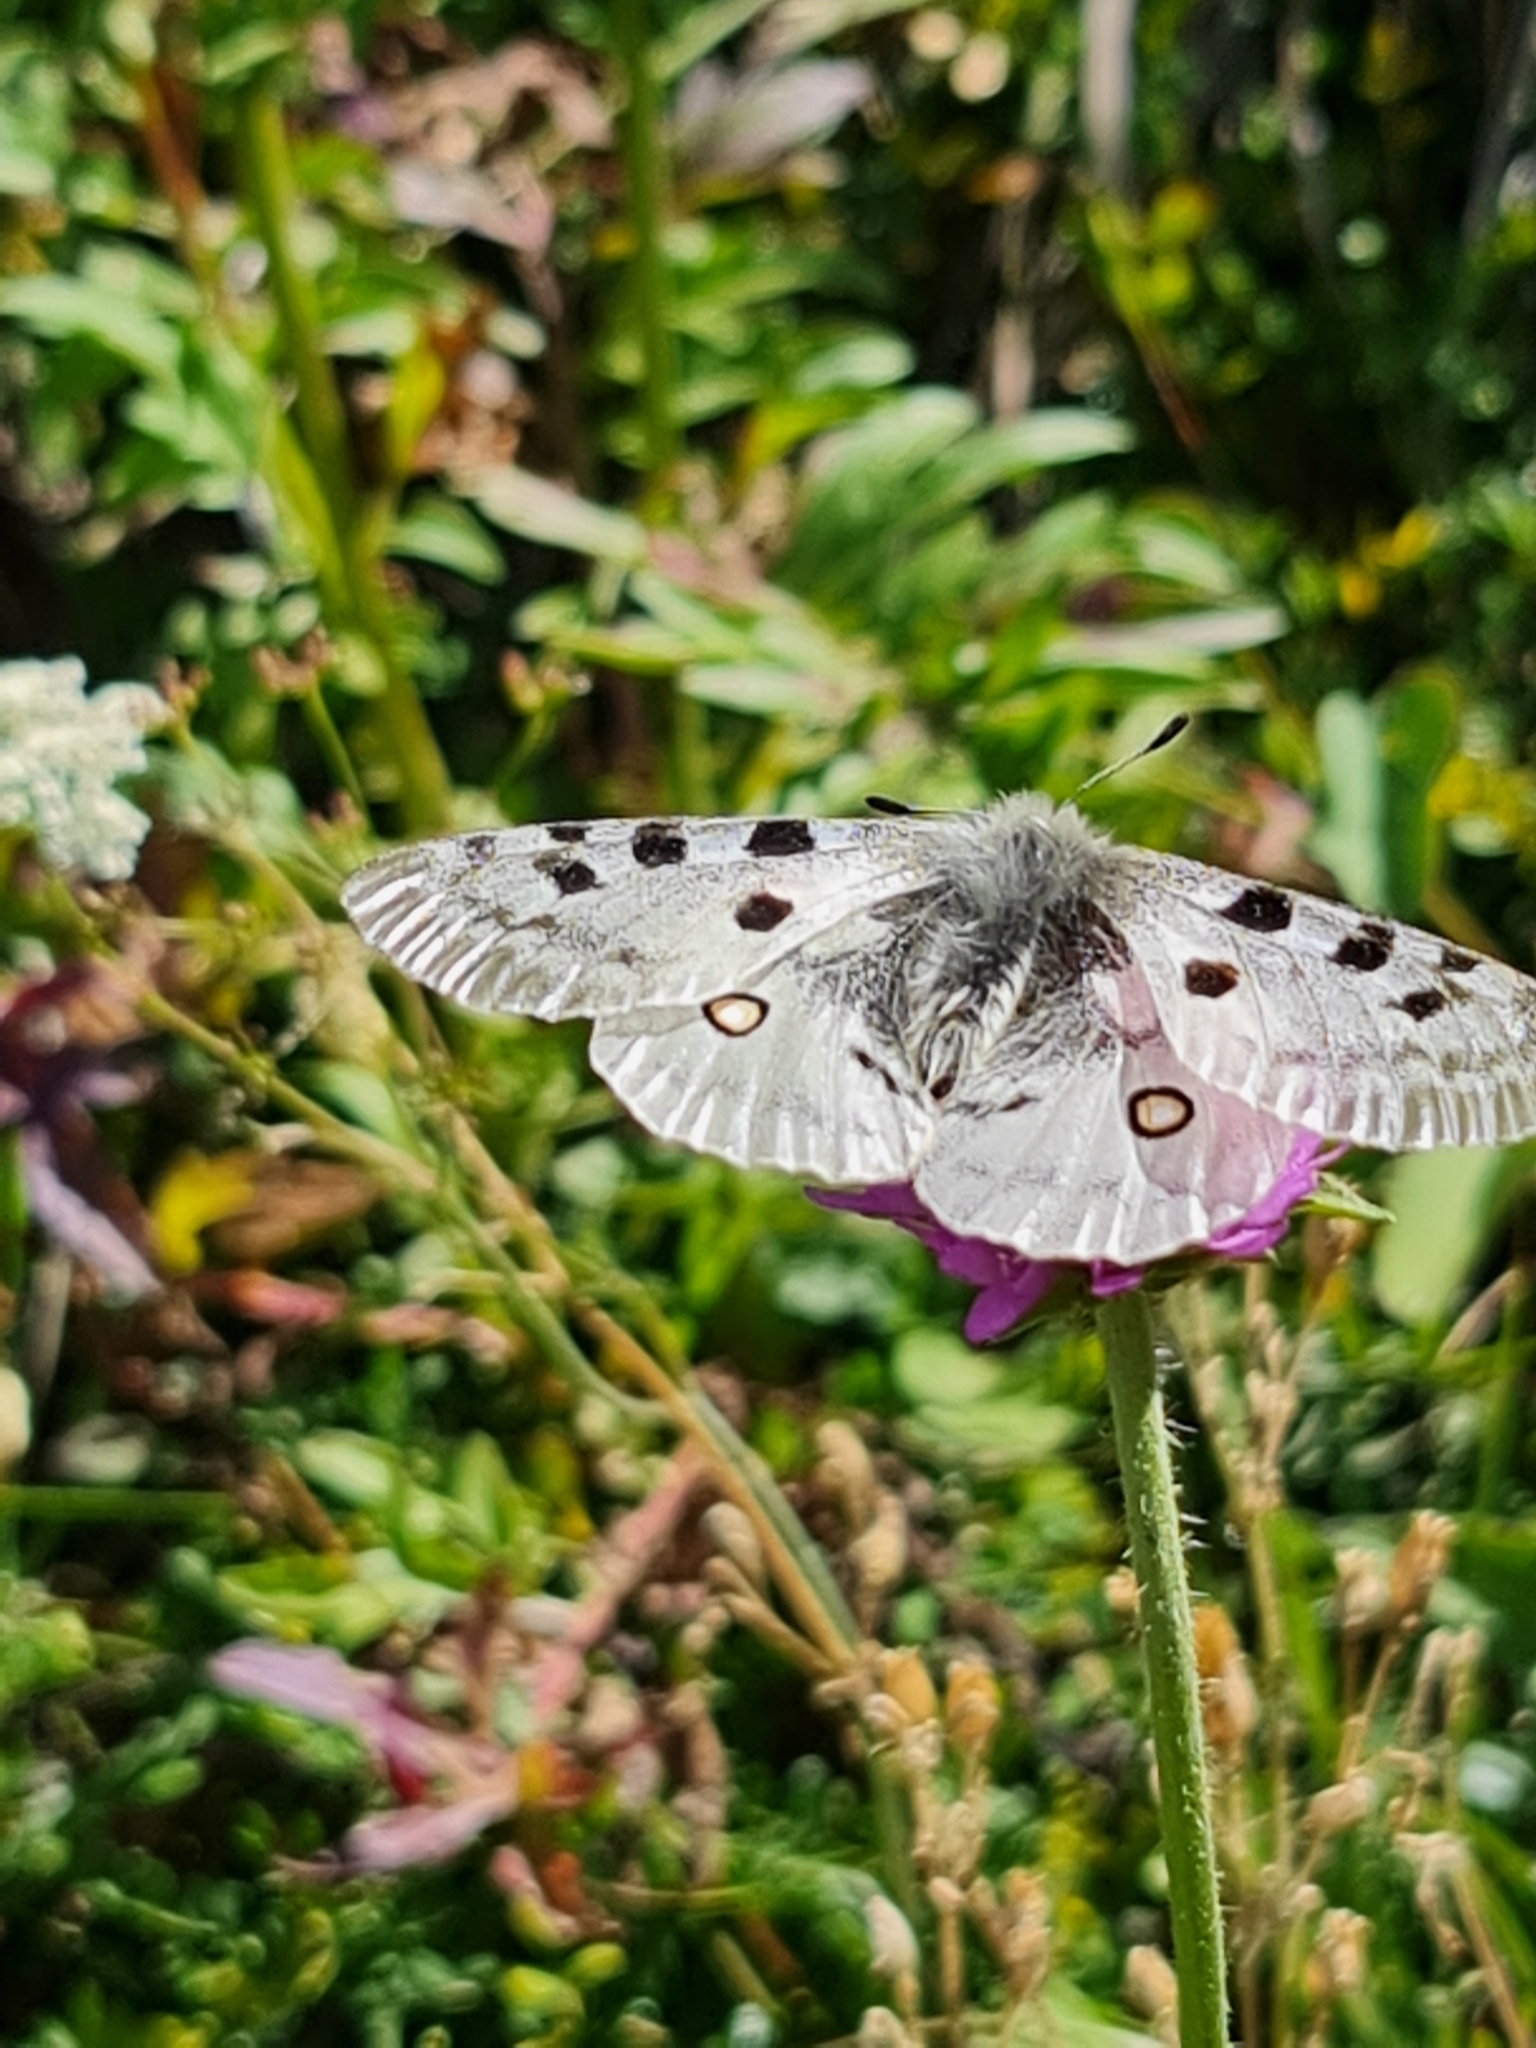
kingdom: Animalia
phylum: Arthropoda
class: Insecta
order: Lepidoptera
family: Papilionidae
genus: Parnassius
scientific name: Parnassius apollo
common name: Apollo
